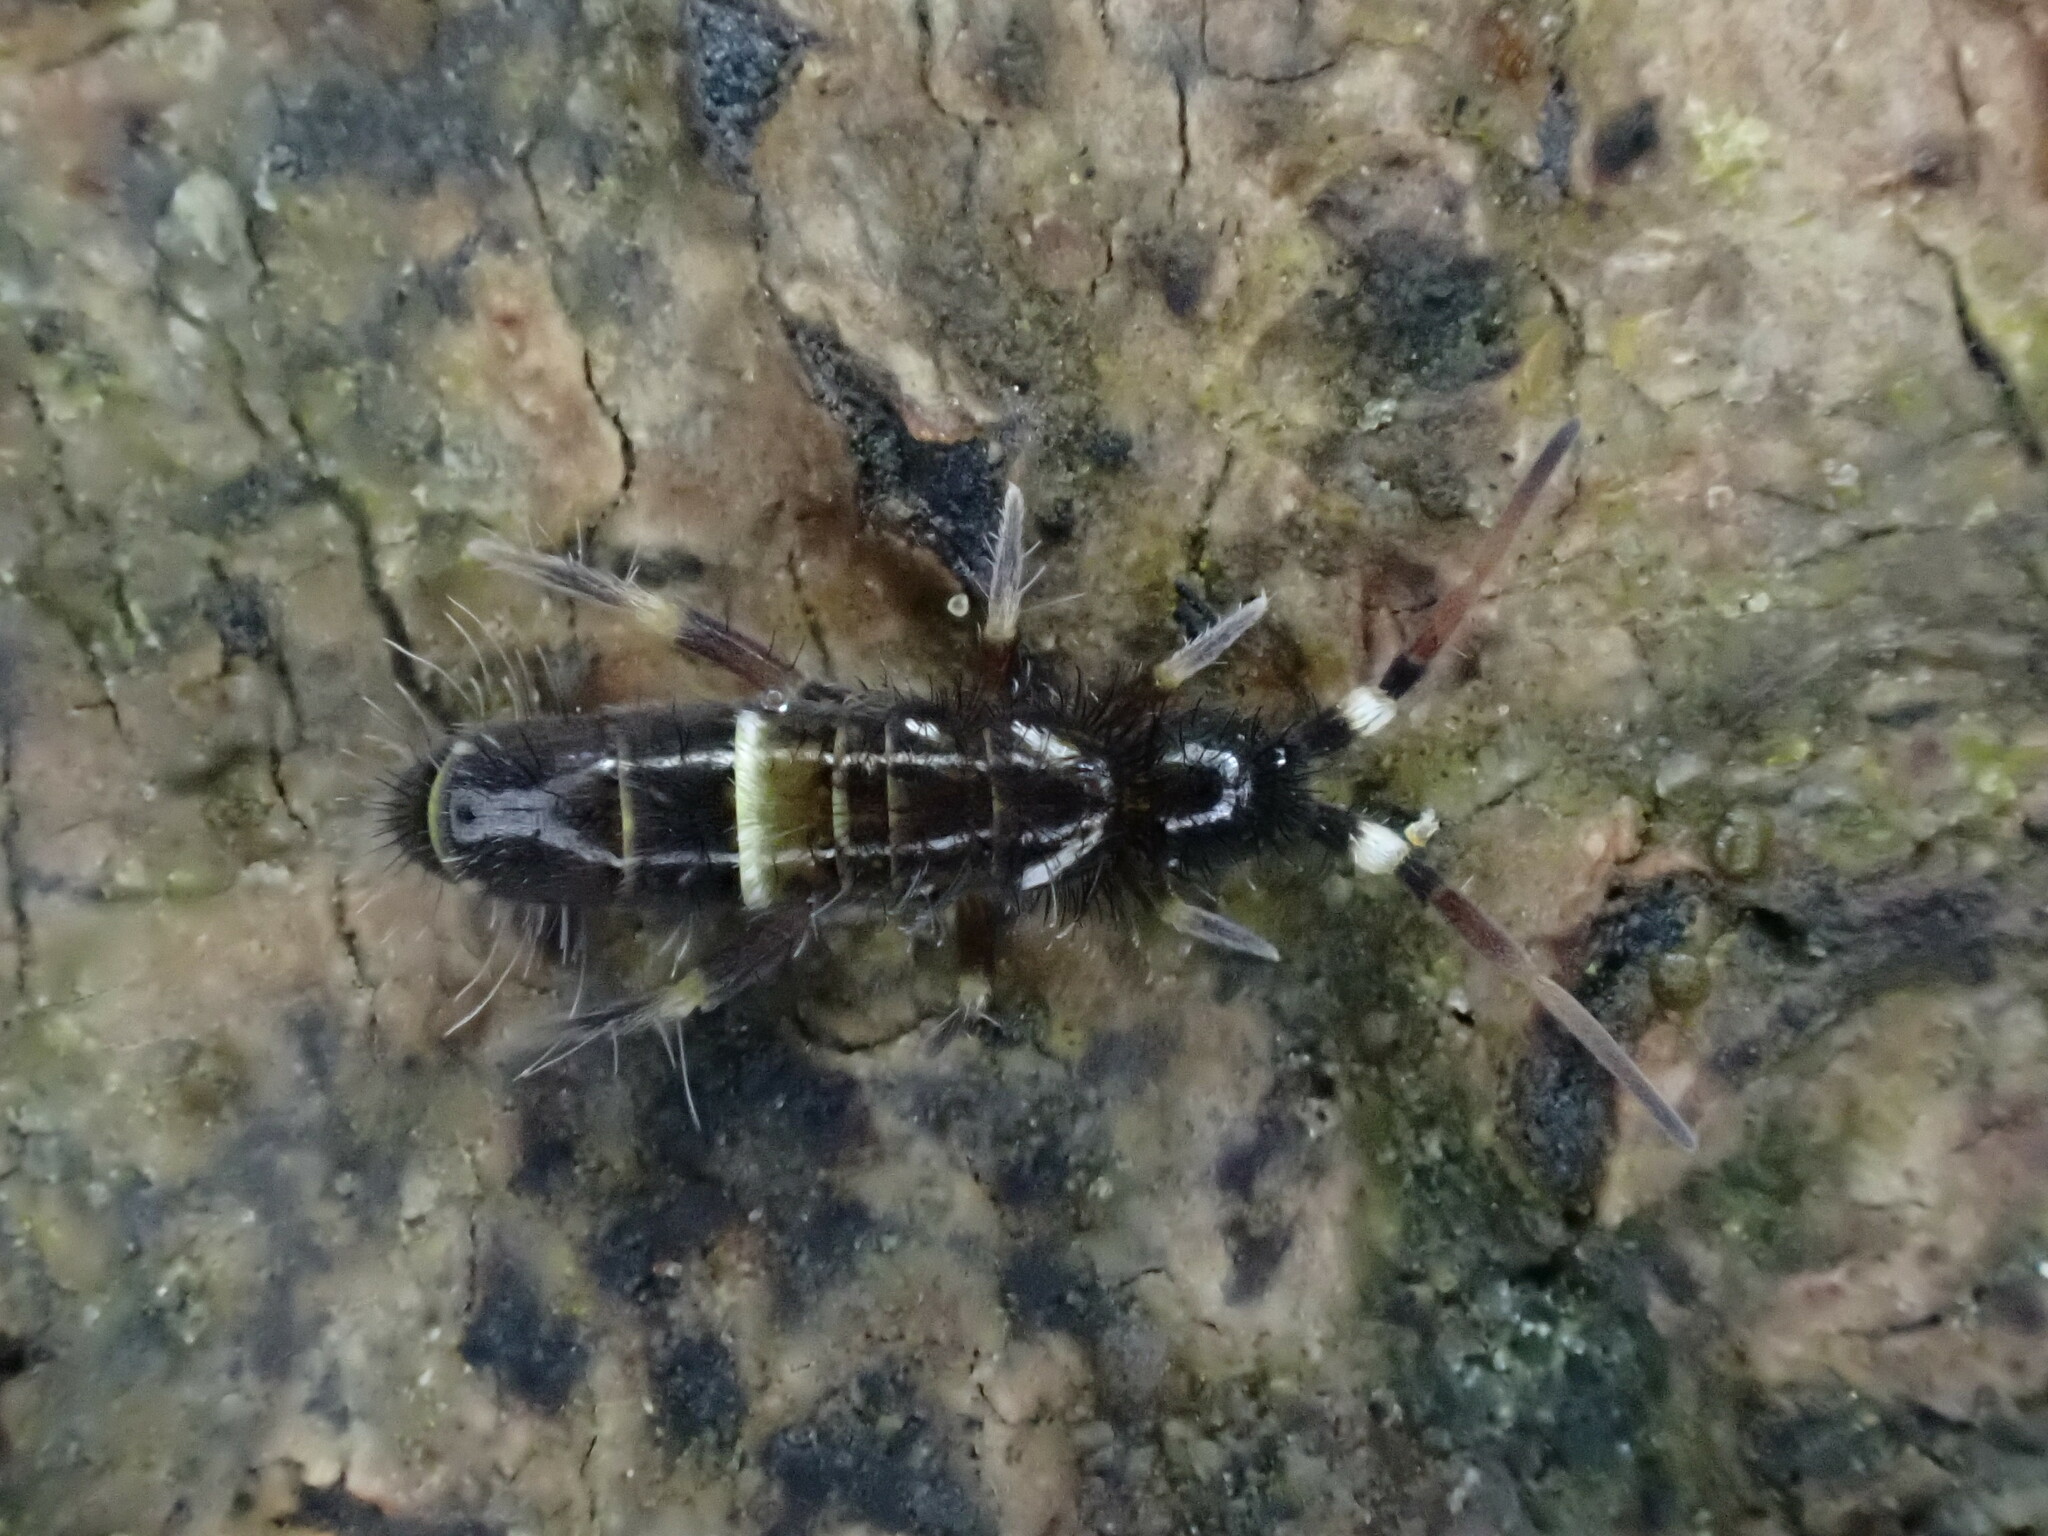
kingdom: Animalia
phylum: Arthropoda
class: Collembola
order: Entomobryomorpha
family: Orchesellidae
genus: Orchesella
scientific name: Orchesella cincta
